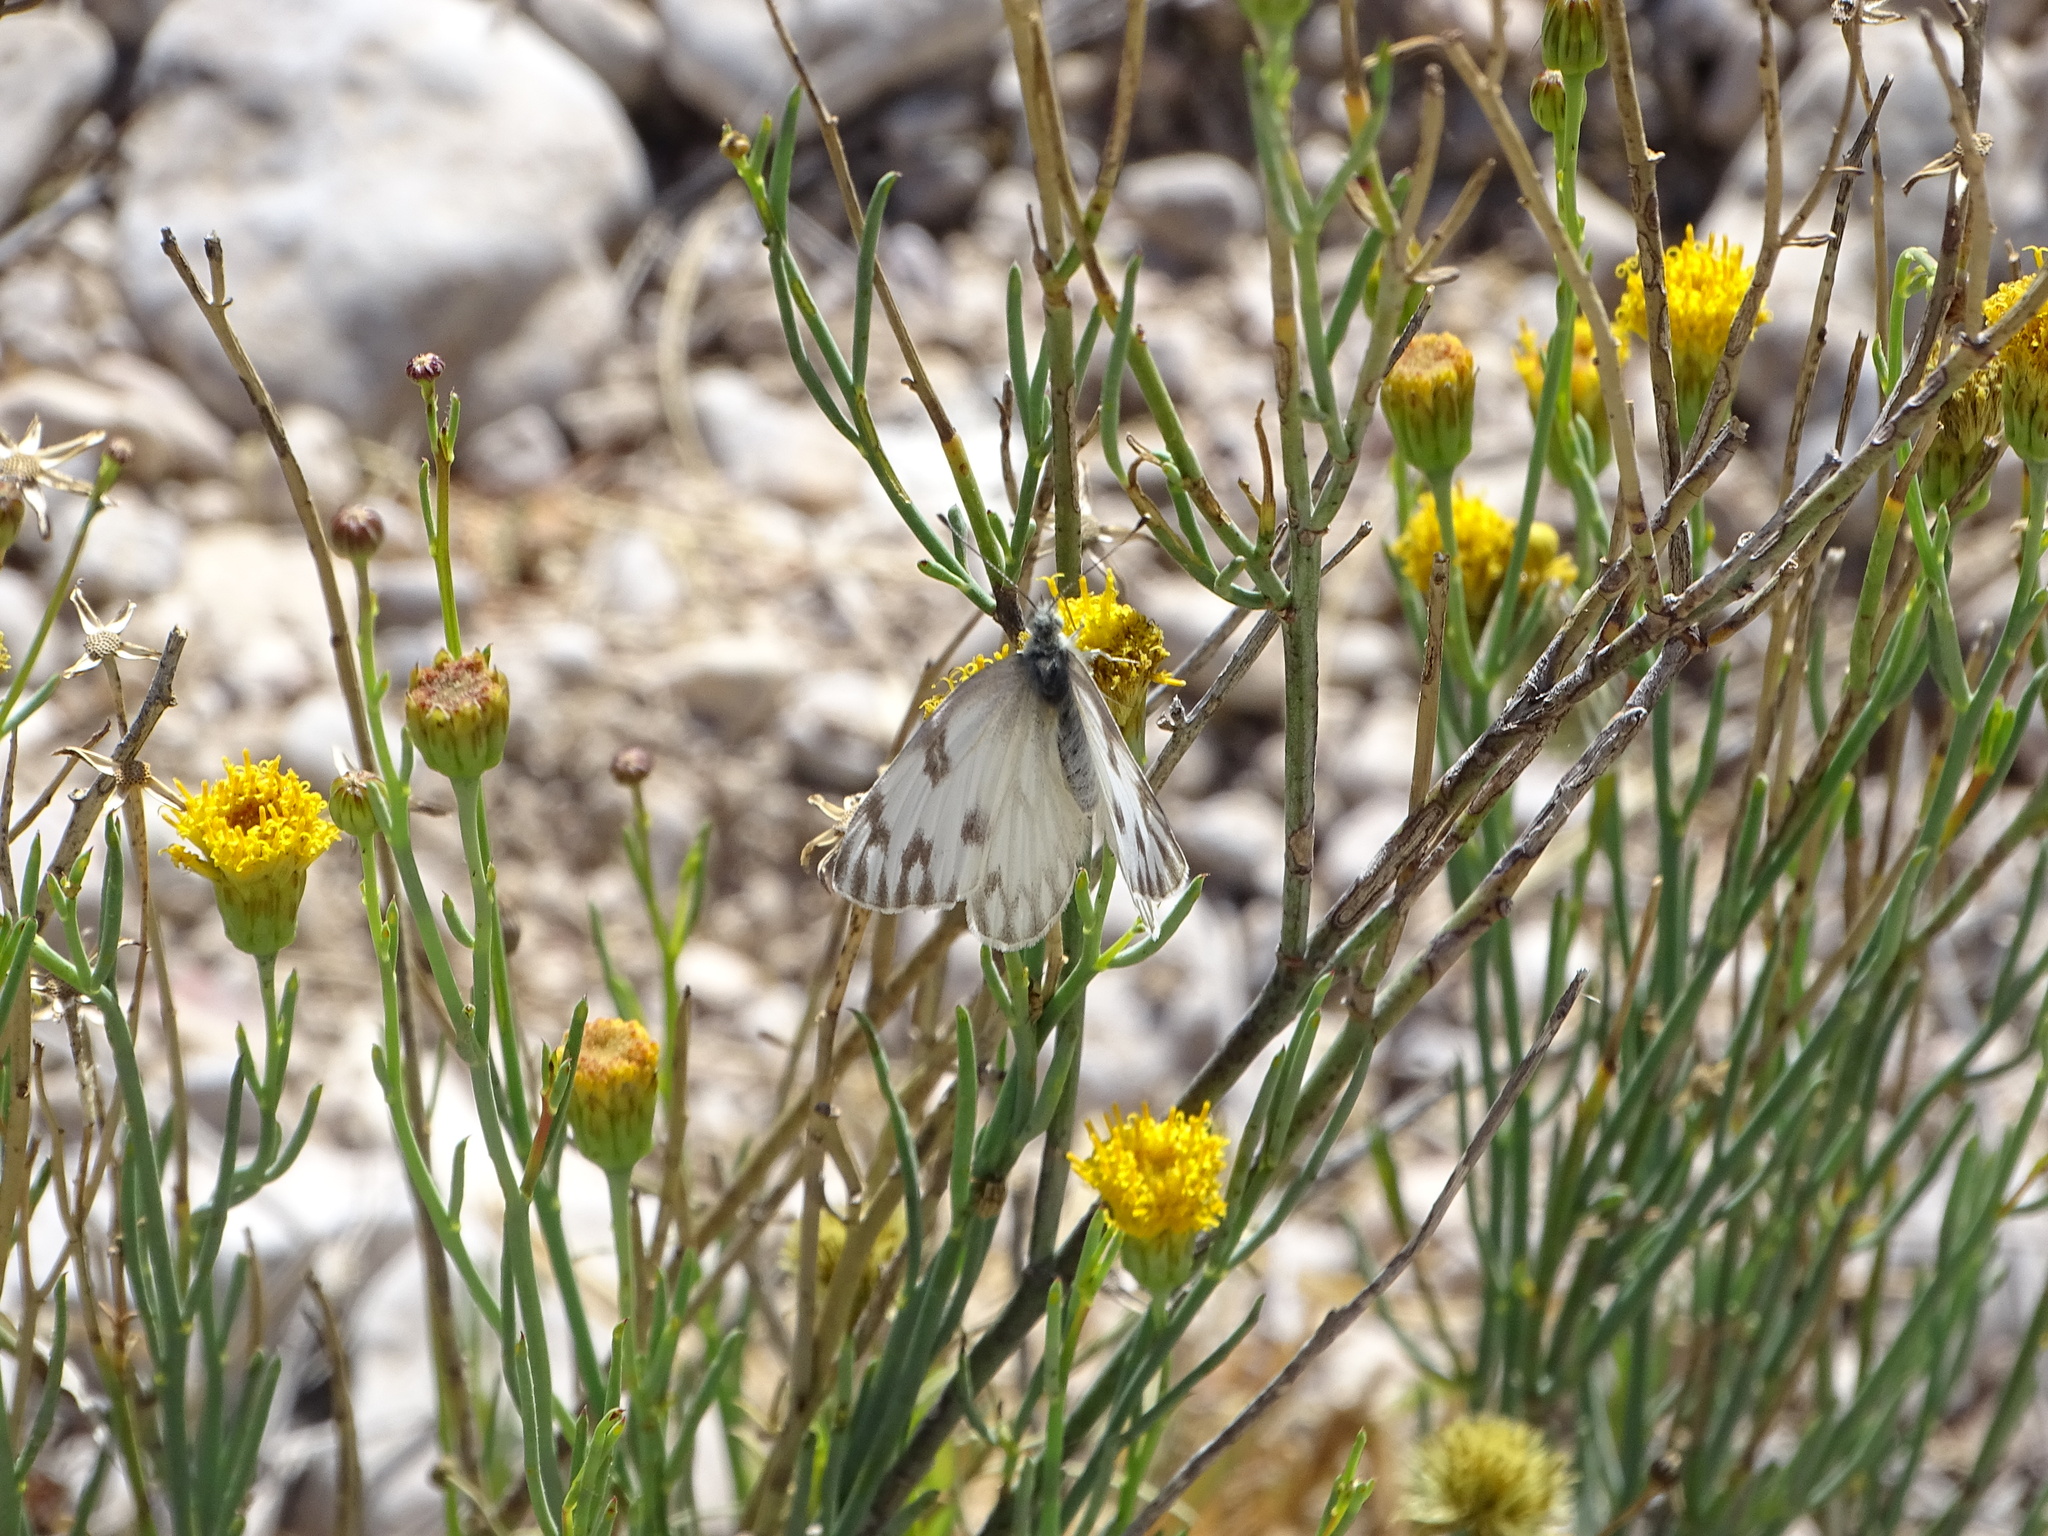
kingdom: Animalia
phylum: Arthropoda
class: Insecta
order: Lepidoptera
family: Pieridae
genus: Pontia
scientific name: Pontia protodice
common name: Checkered white
